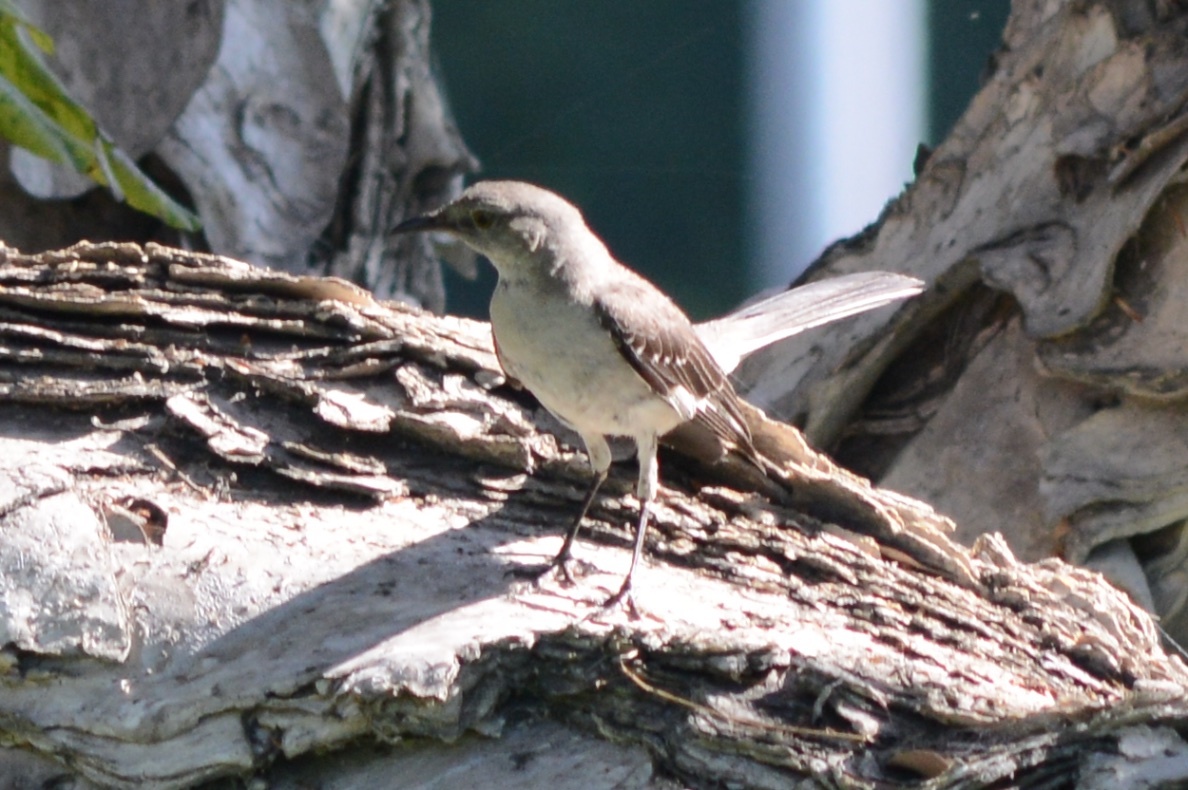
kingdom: Animalia
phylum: Chordata
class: Aves
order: Passeriformes
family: Mimidae
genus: Mimus
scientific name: Mimus polyglottos
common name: Northern mockingbird
